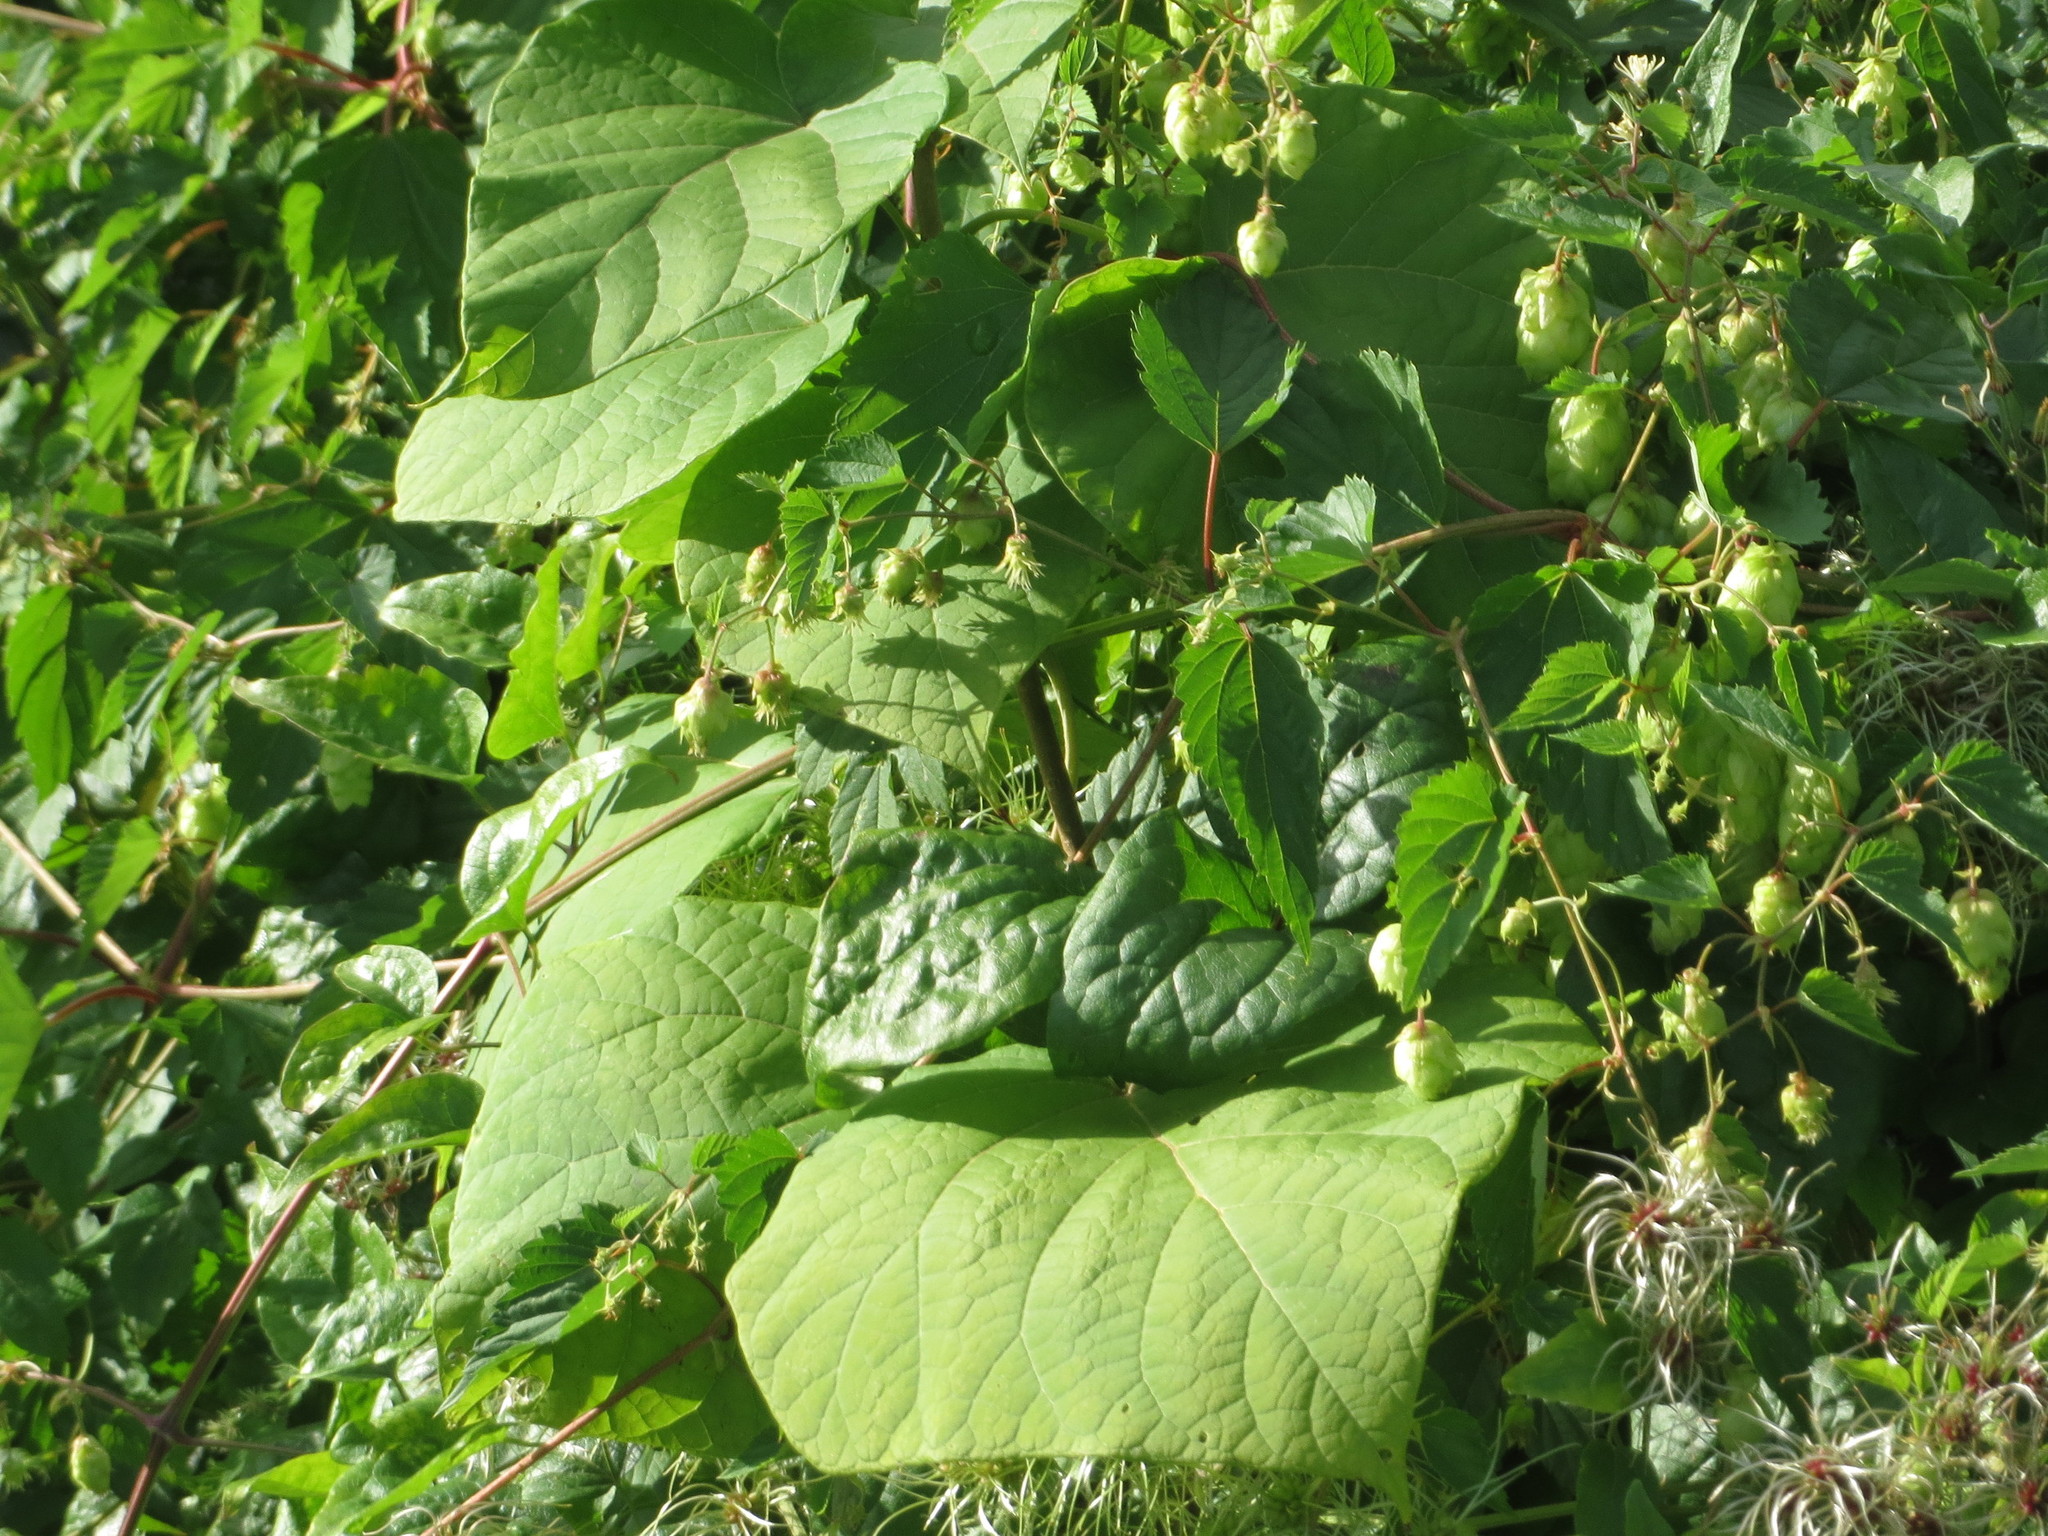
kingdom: Plantae
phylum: Tracheophyta
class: Magnoliopsida
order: Lamiales
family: Paulowniaceae
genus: Paulownia
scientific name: Paulownia tomentosa
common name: Foxglove-tree
